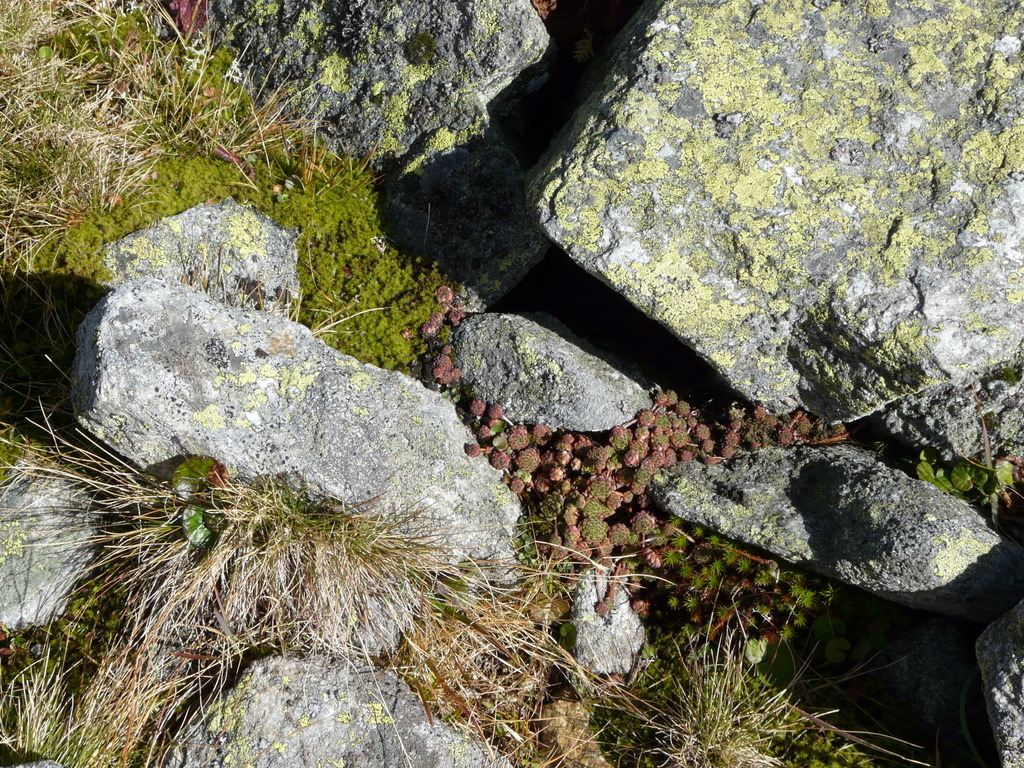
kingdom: Plantae
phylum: Tracheophyta
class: Magnoliopsida
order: Saxifragales
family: Crassulaceae
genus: Sempervivum
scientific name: Sempervivum montanum
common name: Mountain house-leek
